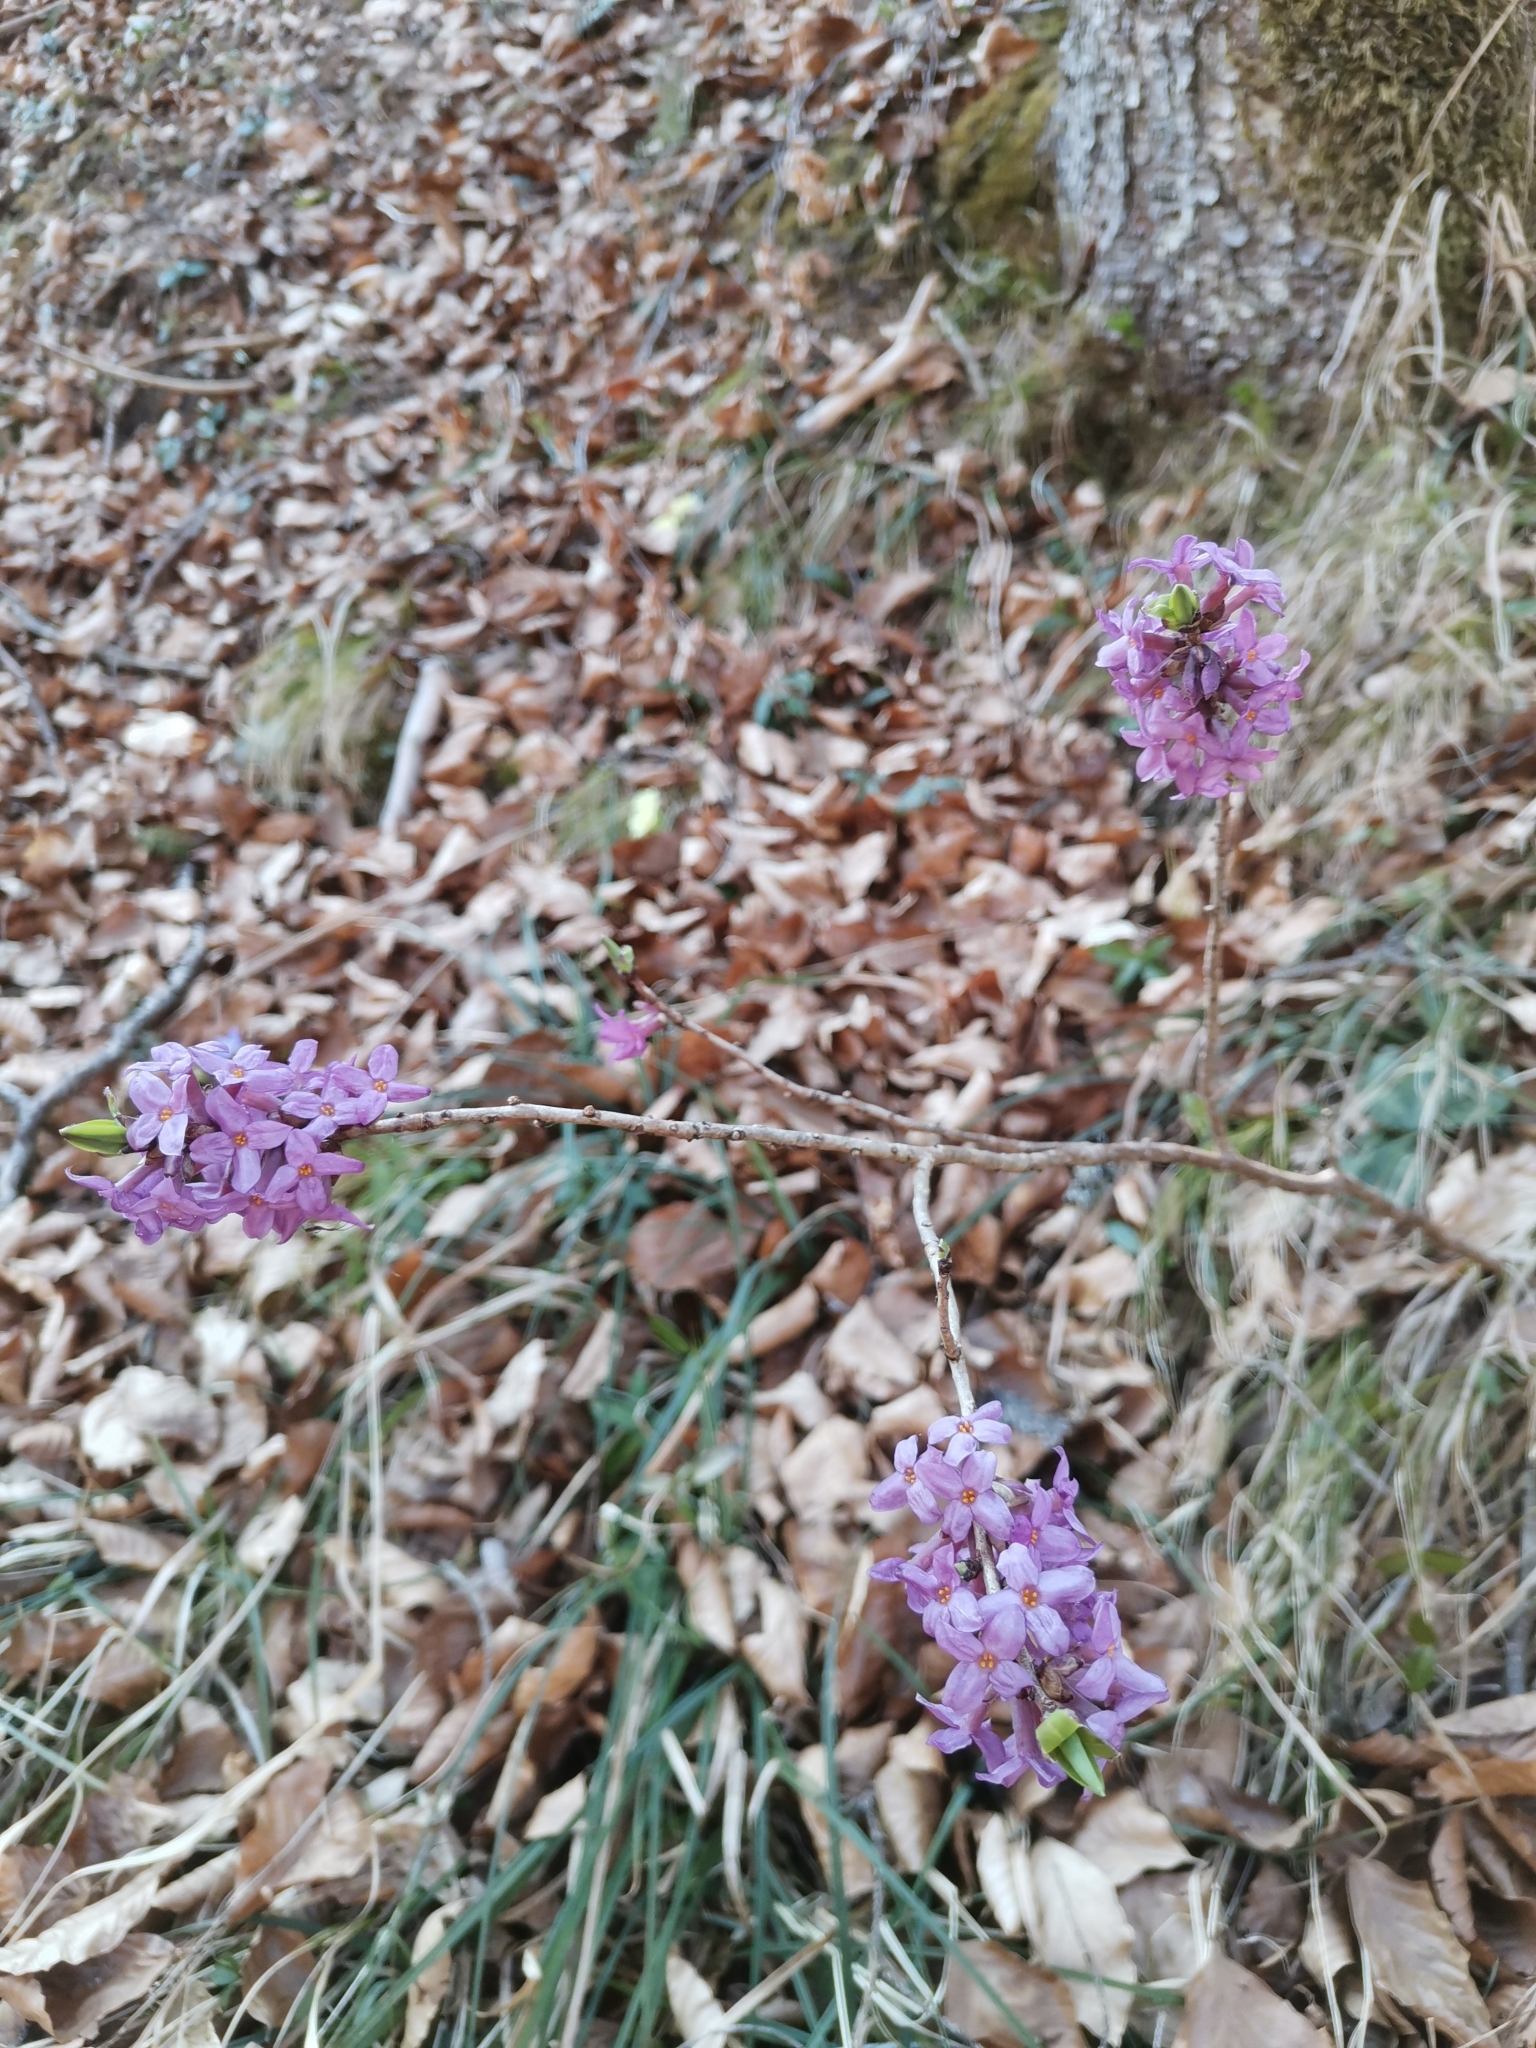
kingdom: Plantae
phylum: Tracheophyta
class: Magnoliopsida
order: Malvales
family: Thymelaeaceae
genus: Daphne
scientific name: Daphne mezereum
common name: Mezereon
